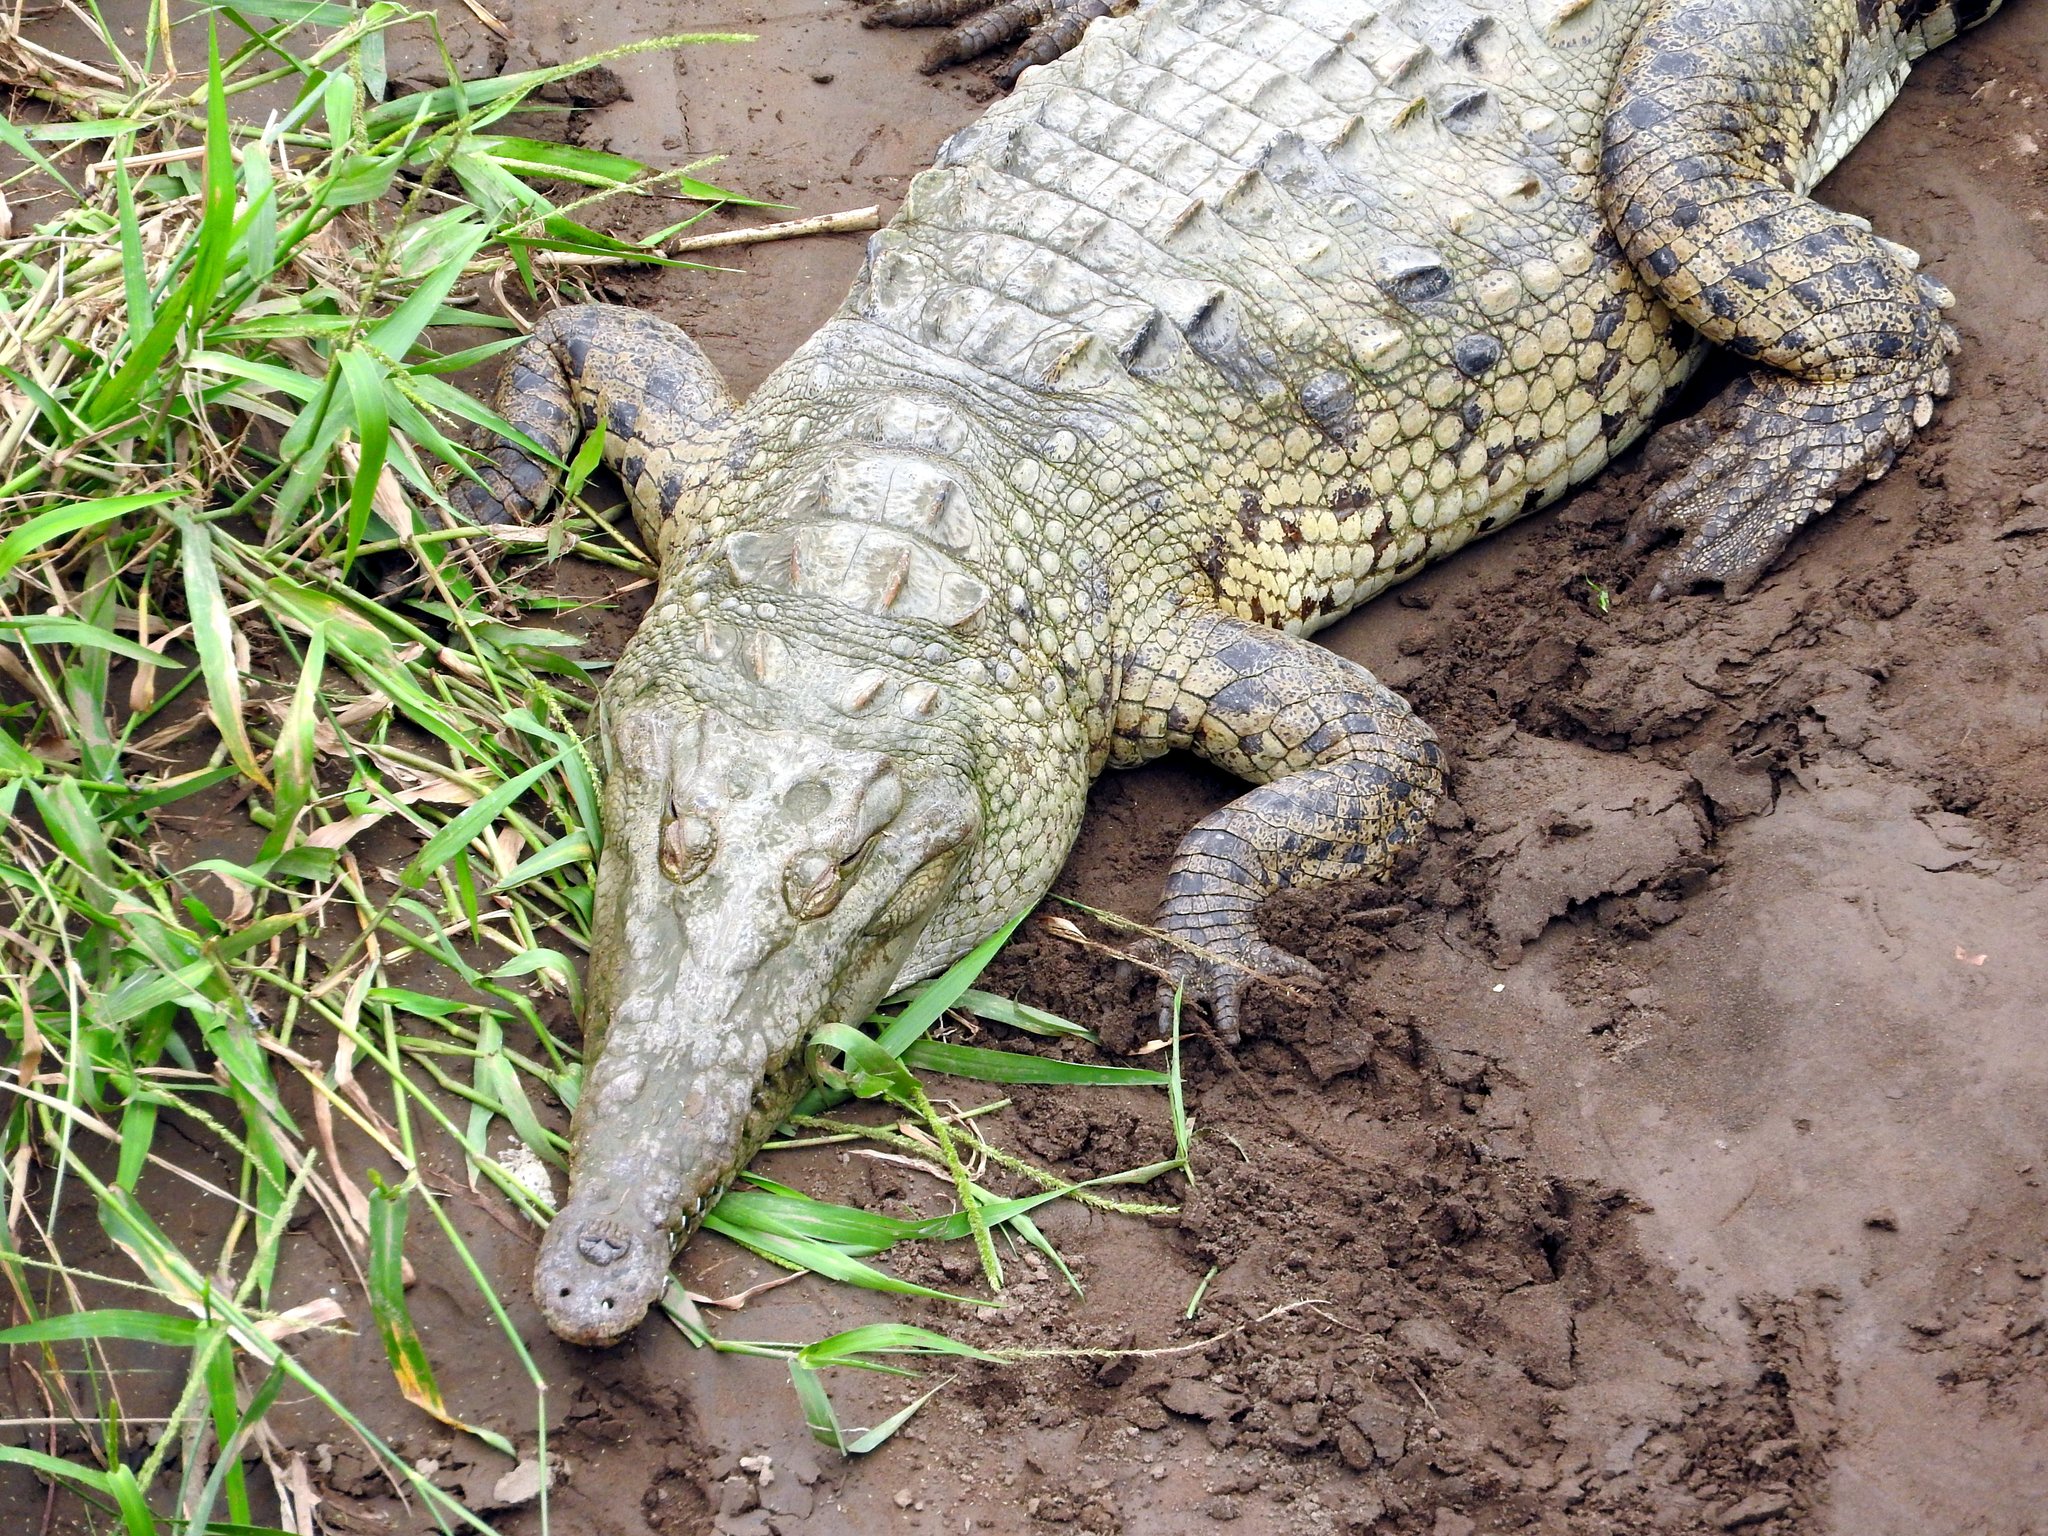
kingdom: Animalia
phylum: Chordata
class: Crocodylia
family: Crocodylidae
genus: Crocodylus
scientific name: Crocodylus acutus
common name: American crocodile
